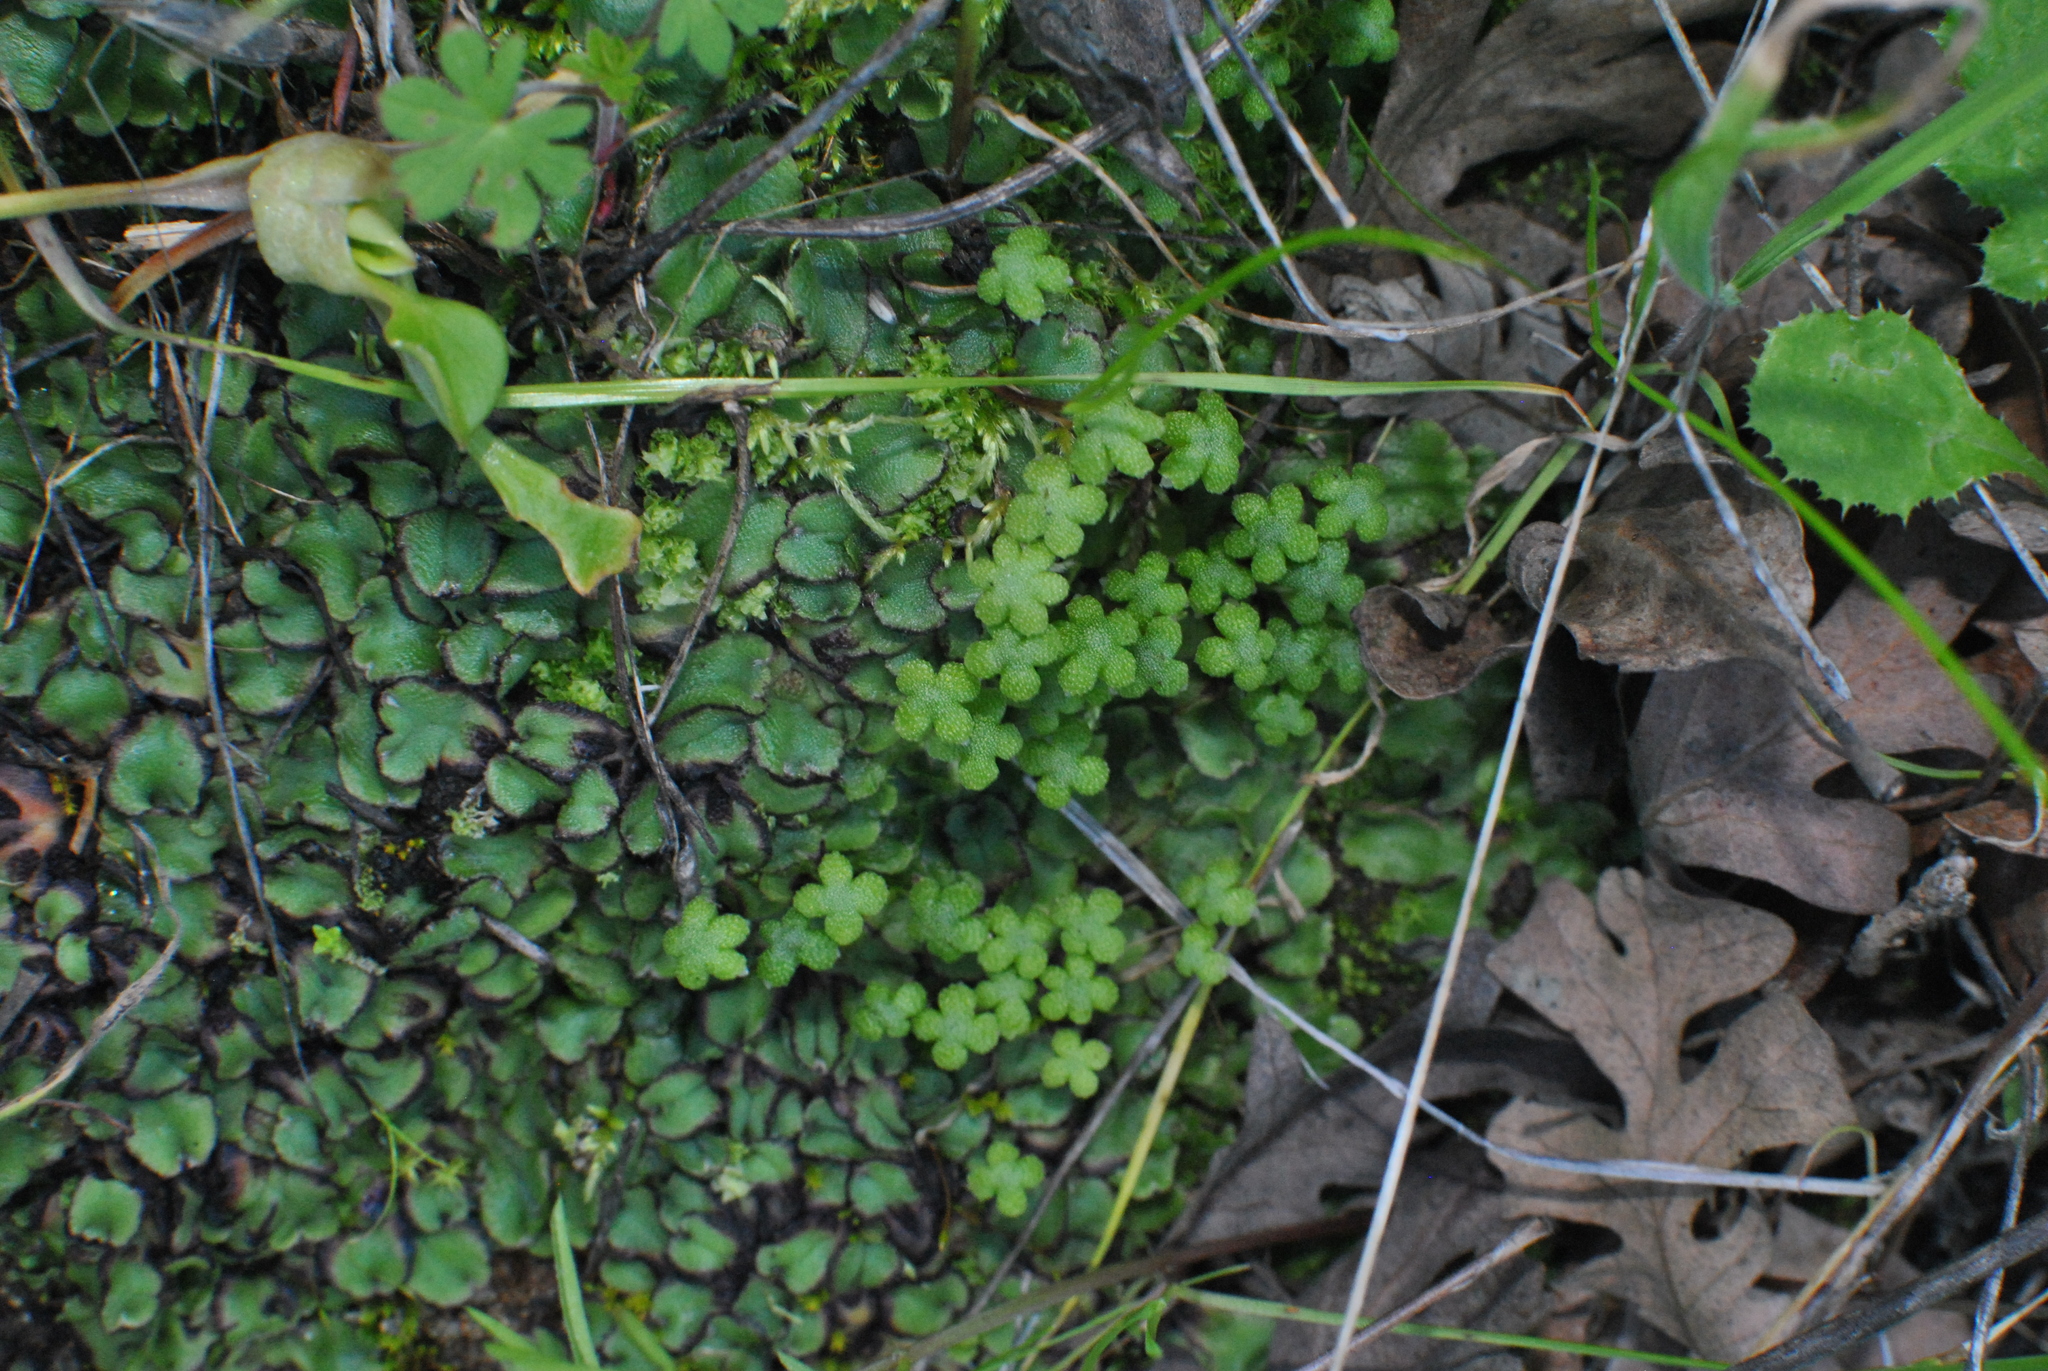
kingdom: Plantae
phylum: Marchantiophyta
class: Marchantiopsida
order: Marchantiales
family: Aytoniaceae
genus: Asterella
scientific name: Asterella californica
